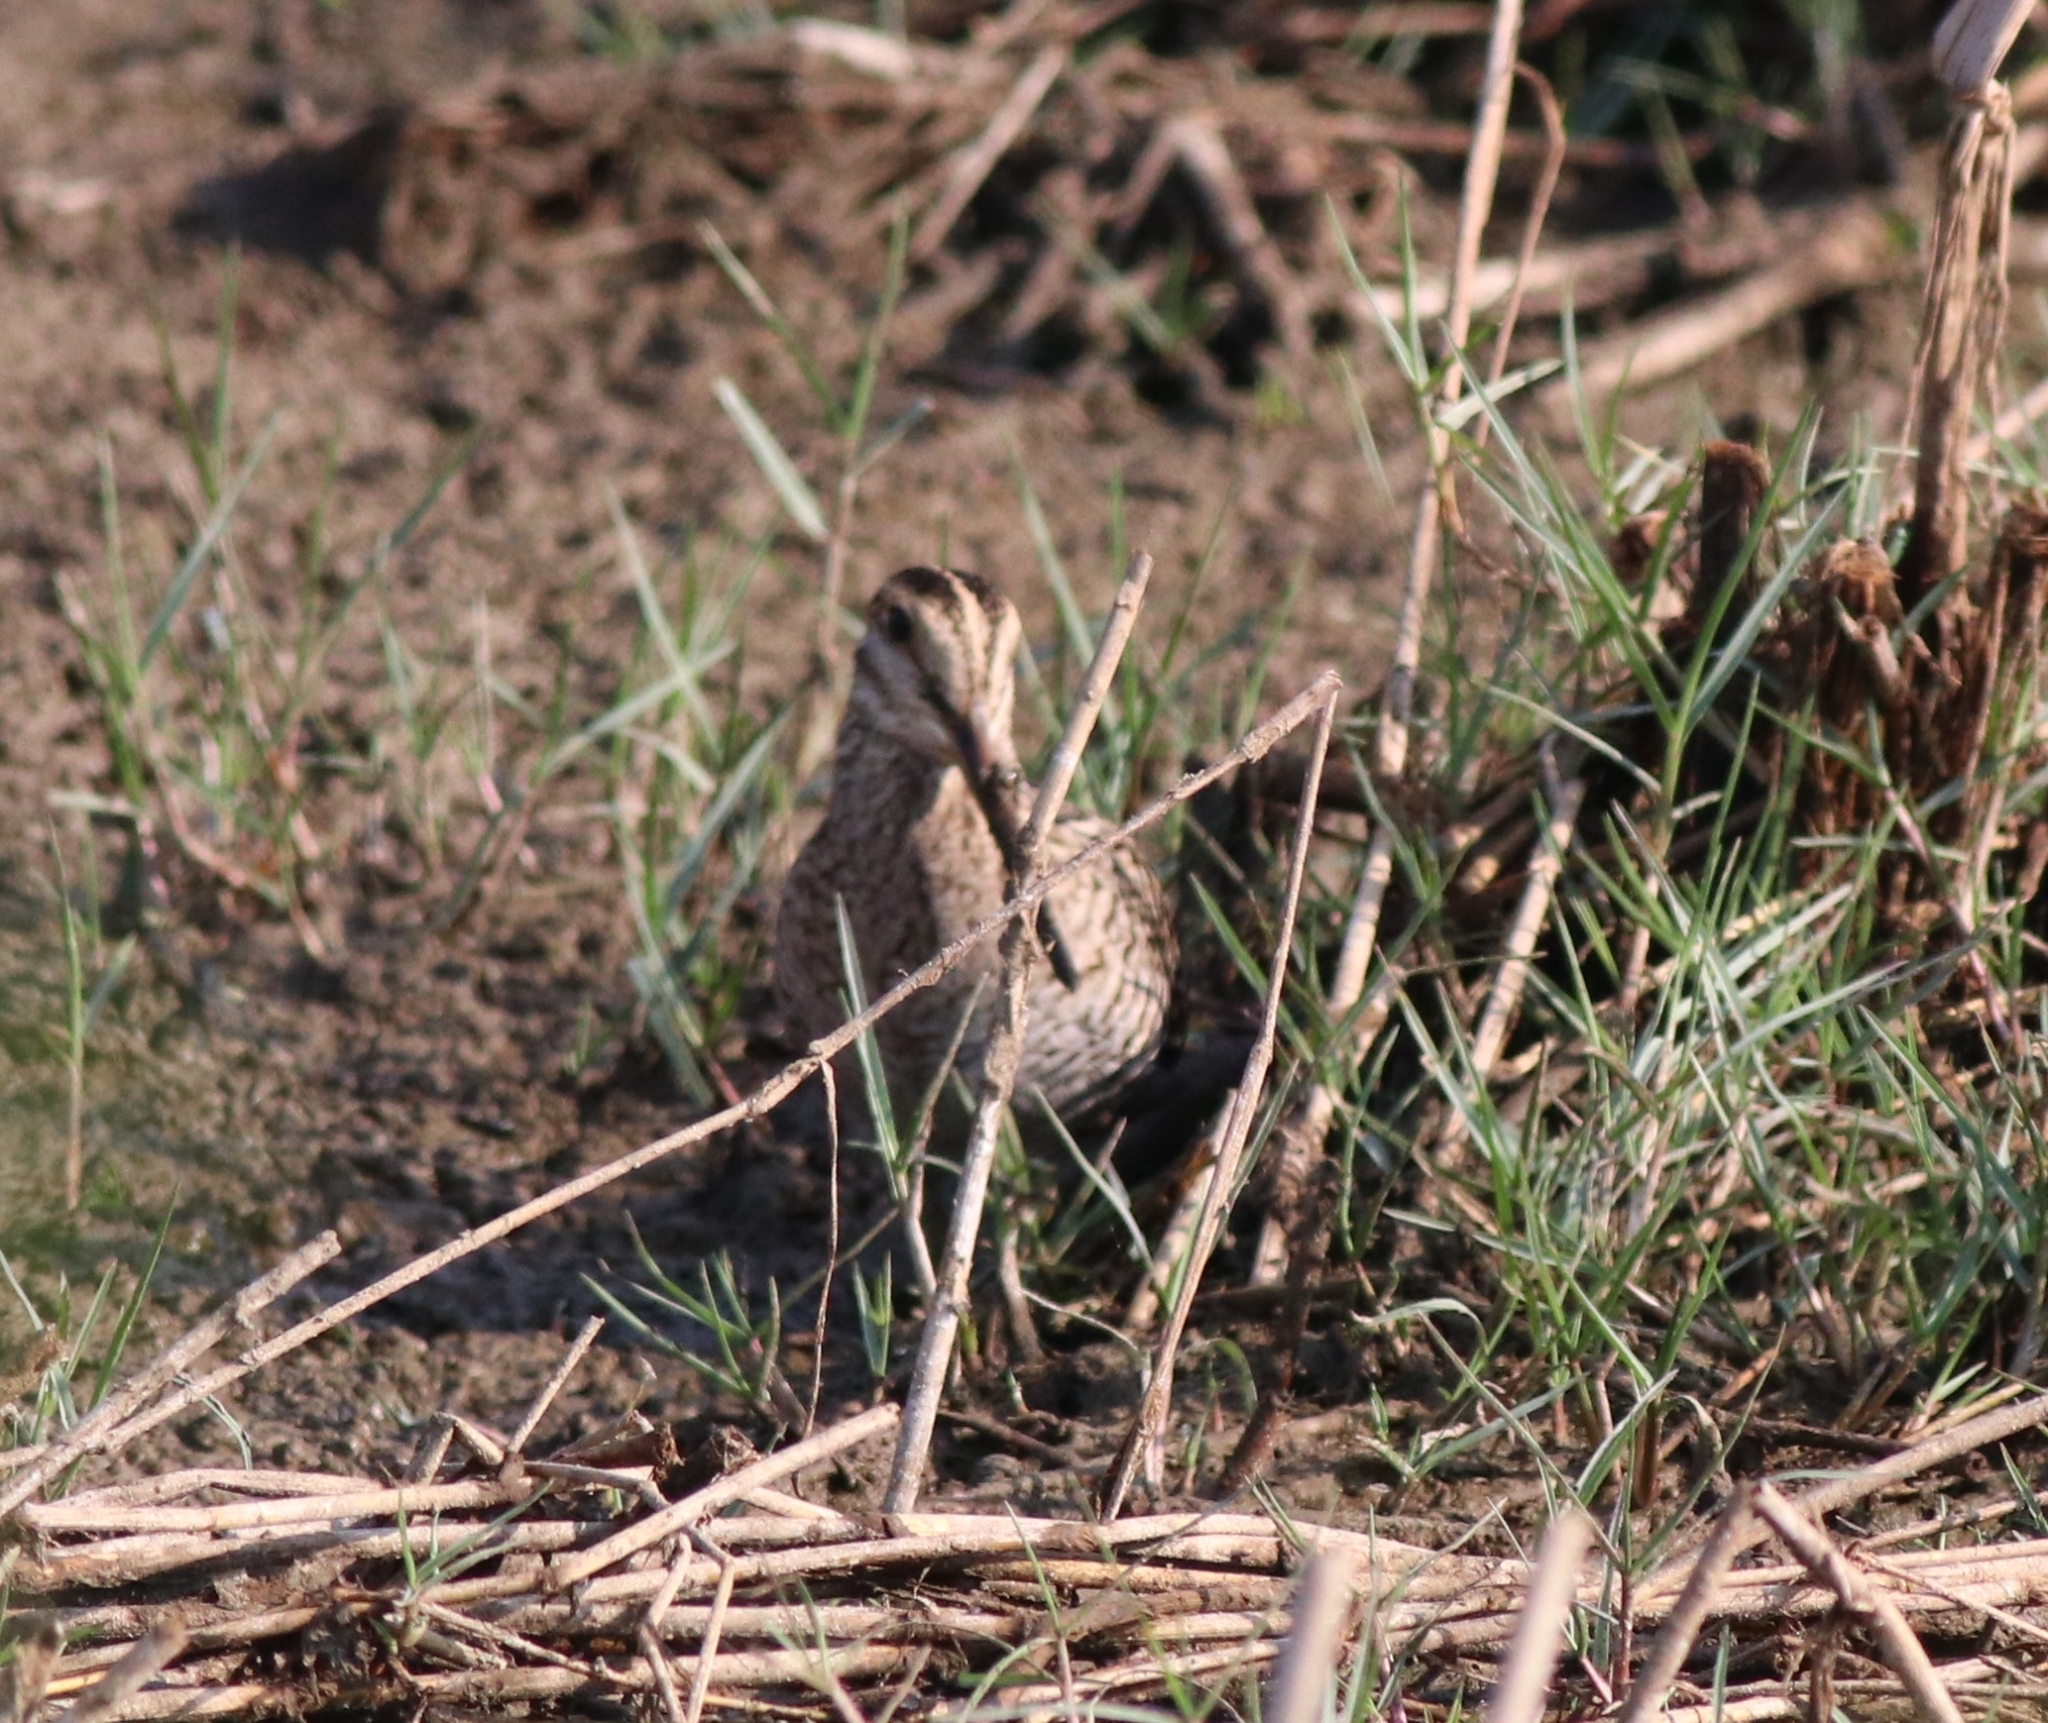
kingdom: Animalia
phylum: Chordata
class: Aves
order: Charadriiformes
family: Scolopacidae
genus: Gallinago
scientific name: Gallinago stenura
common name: Pin-tailed snipe
